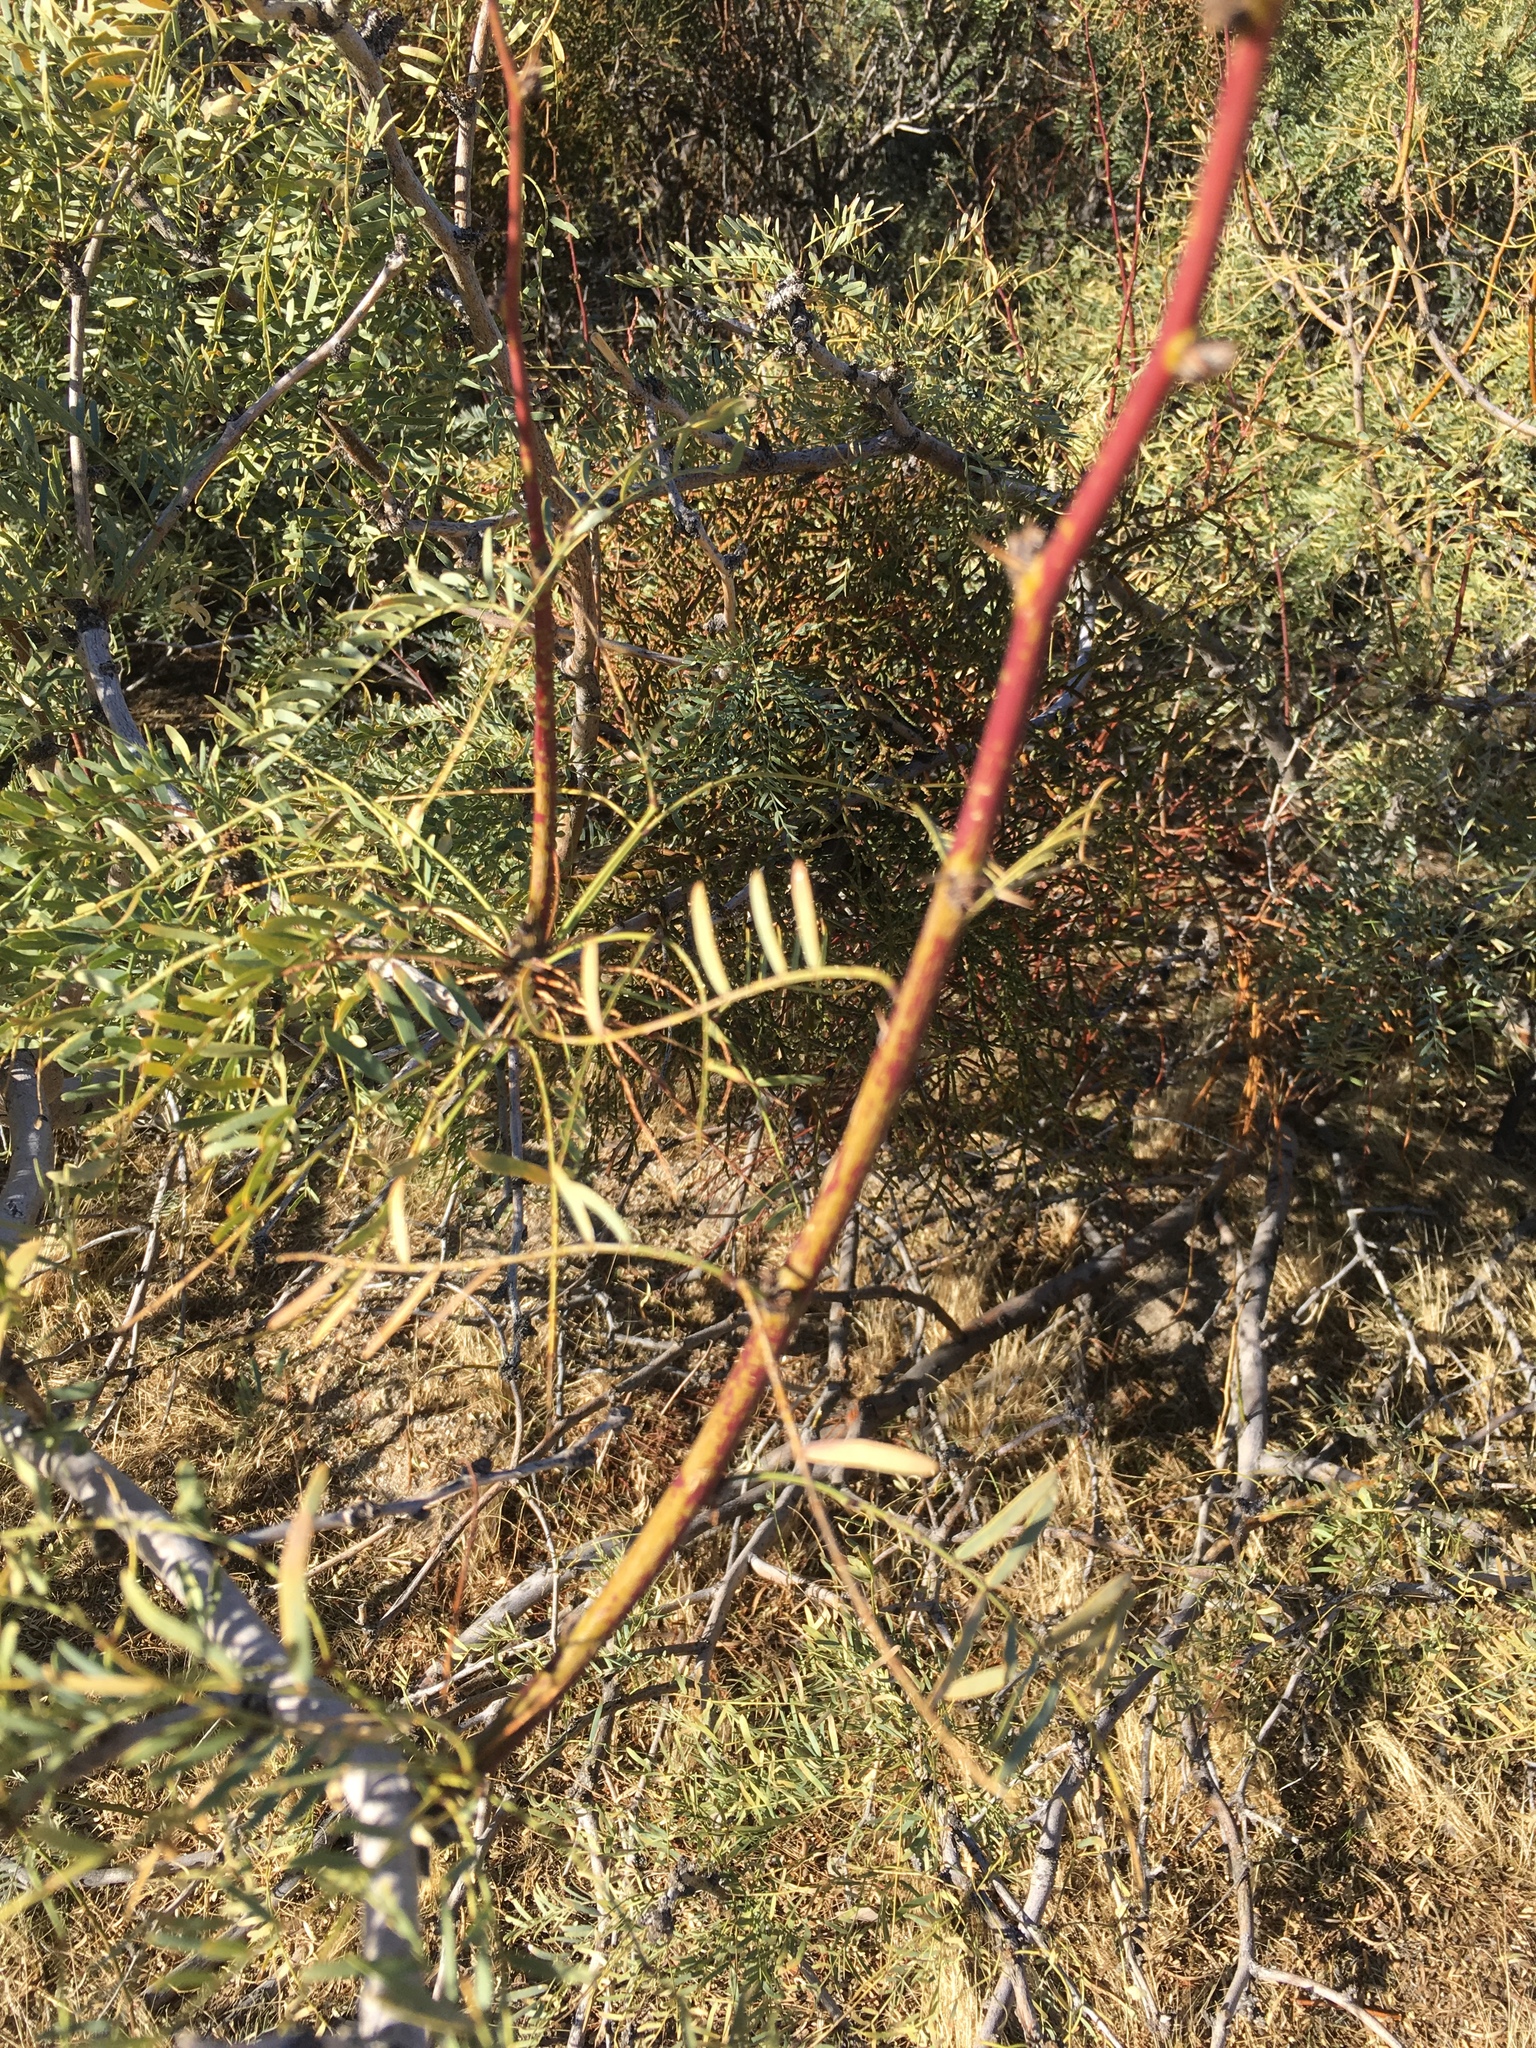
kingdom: Plantae
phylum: Tracheophyta
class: Magnoliopsida
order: Fabales
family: Fabaceae
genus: Prosopis
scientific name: Prosopis pubescens
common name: Screw-bean
